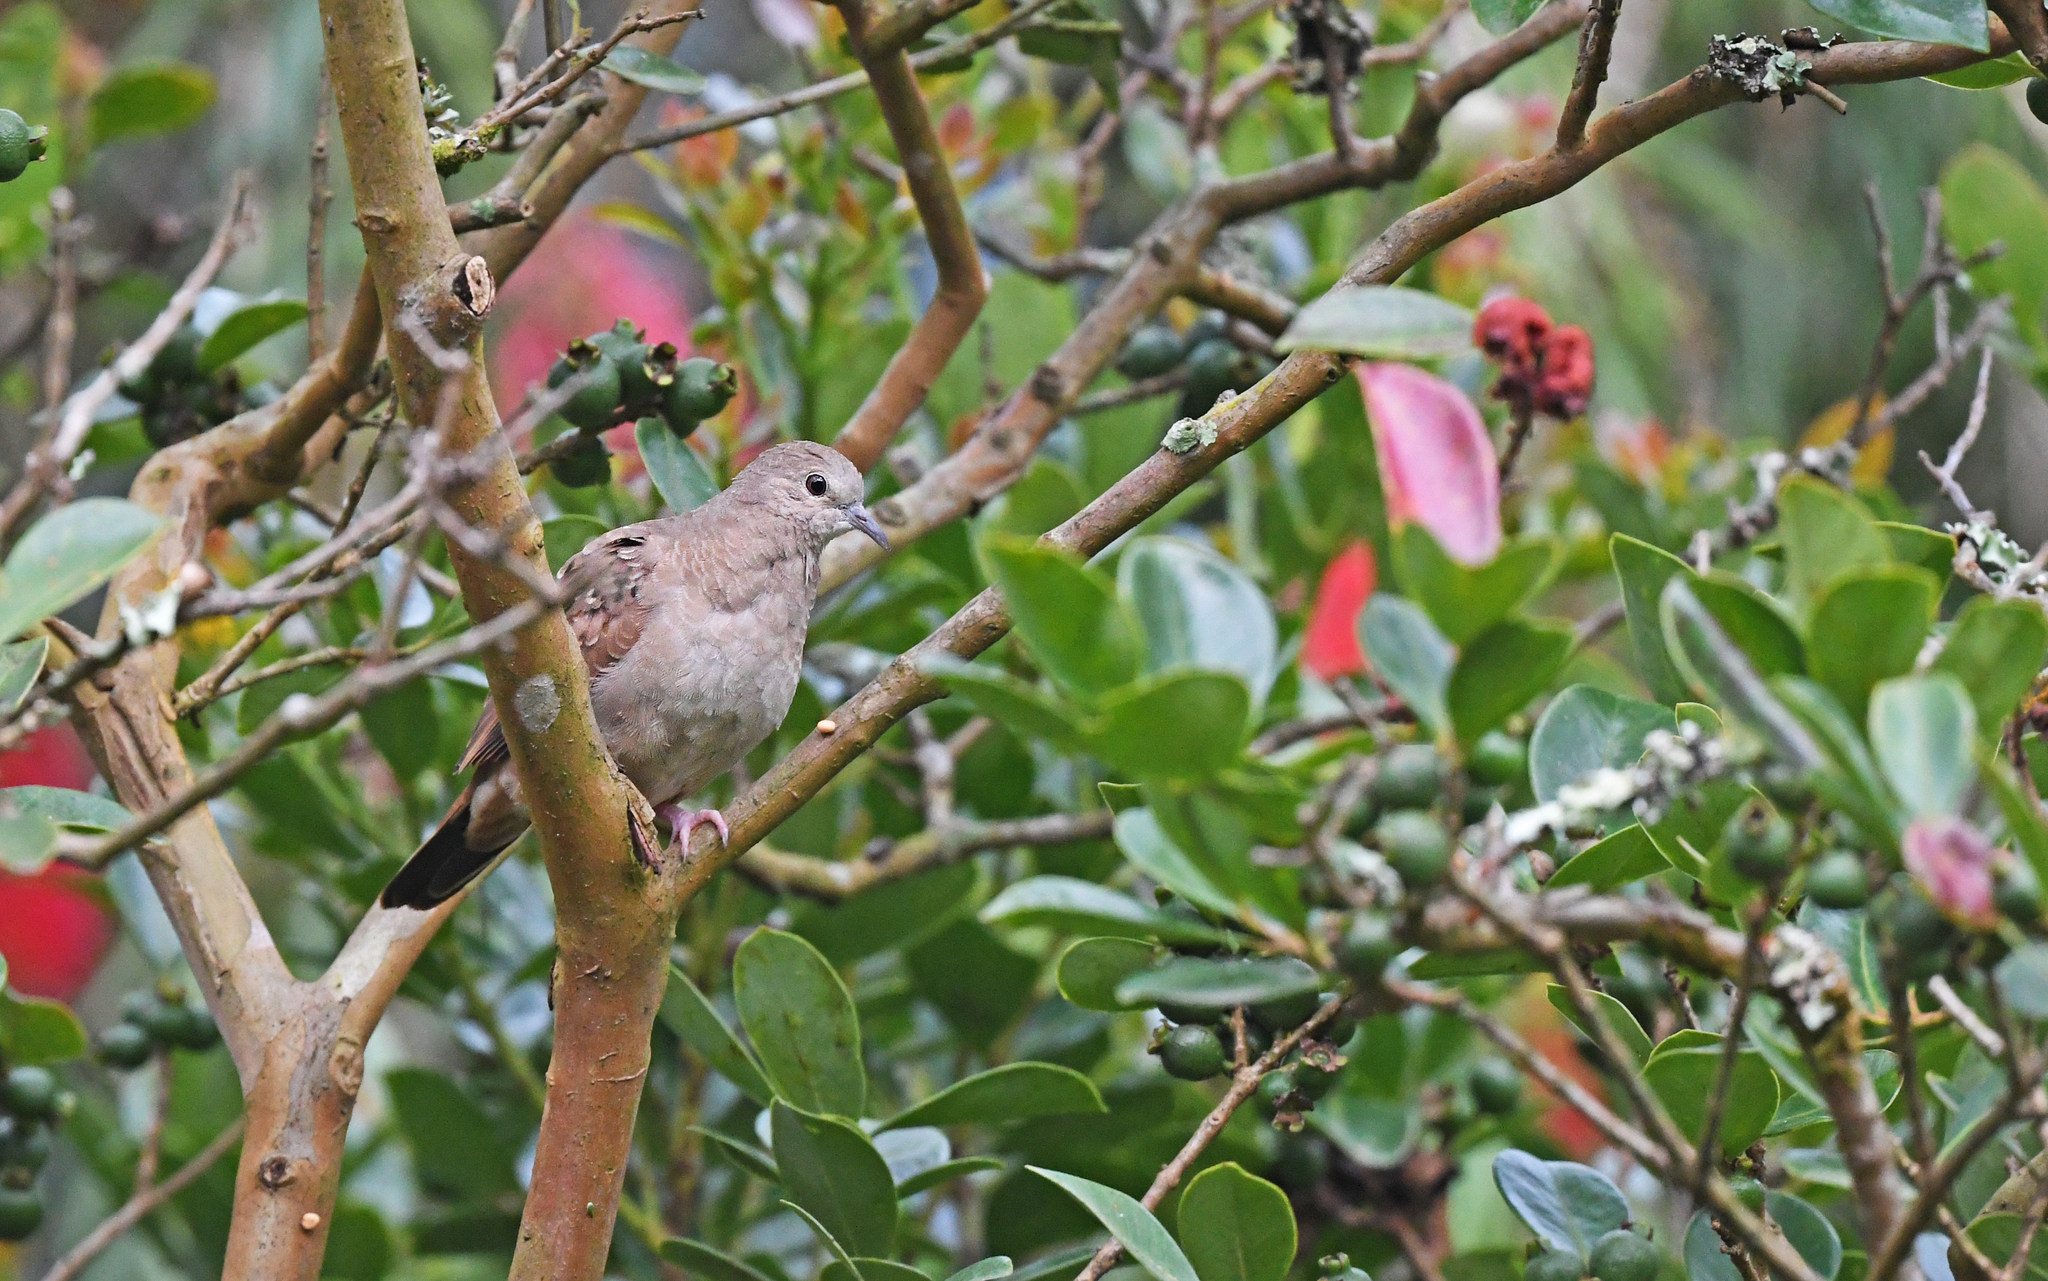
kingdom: Animalia
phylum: Chordata
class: Aves
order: Columbiformes
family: Columbidae
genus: Columbina
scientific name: Columbina talpacoti
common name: Ruddy ground dove
